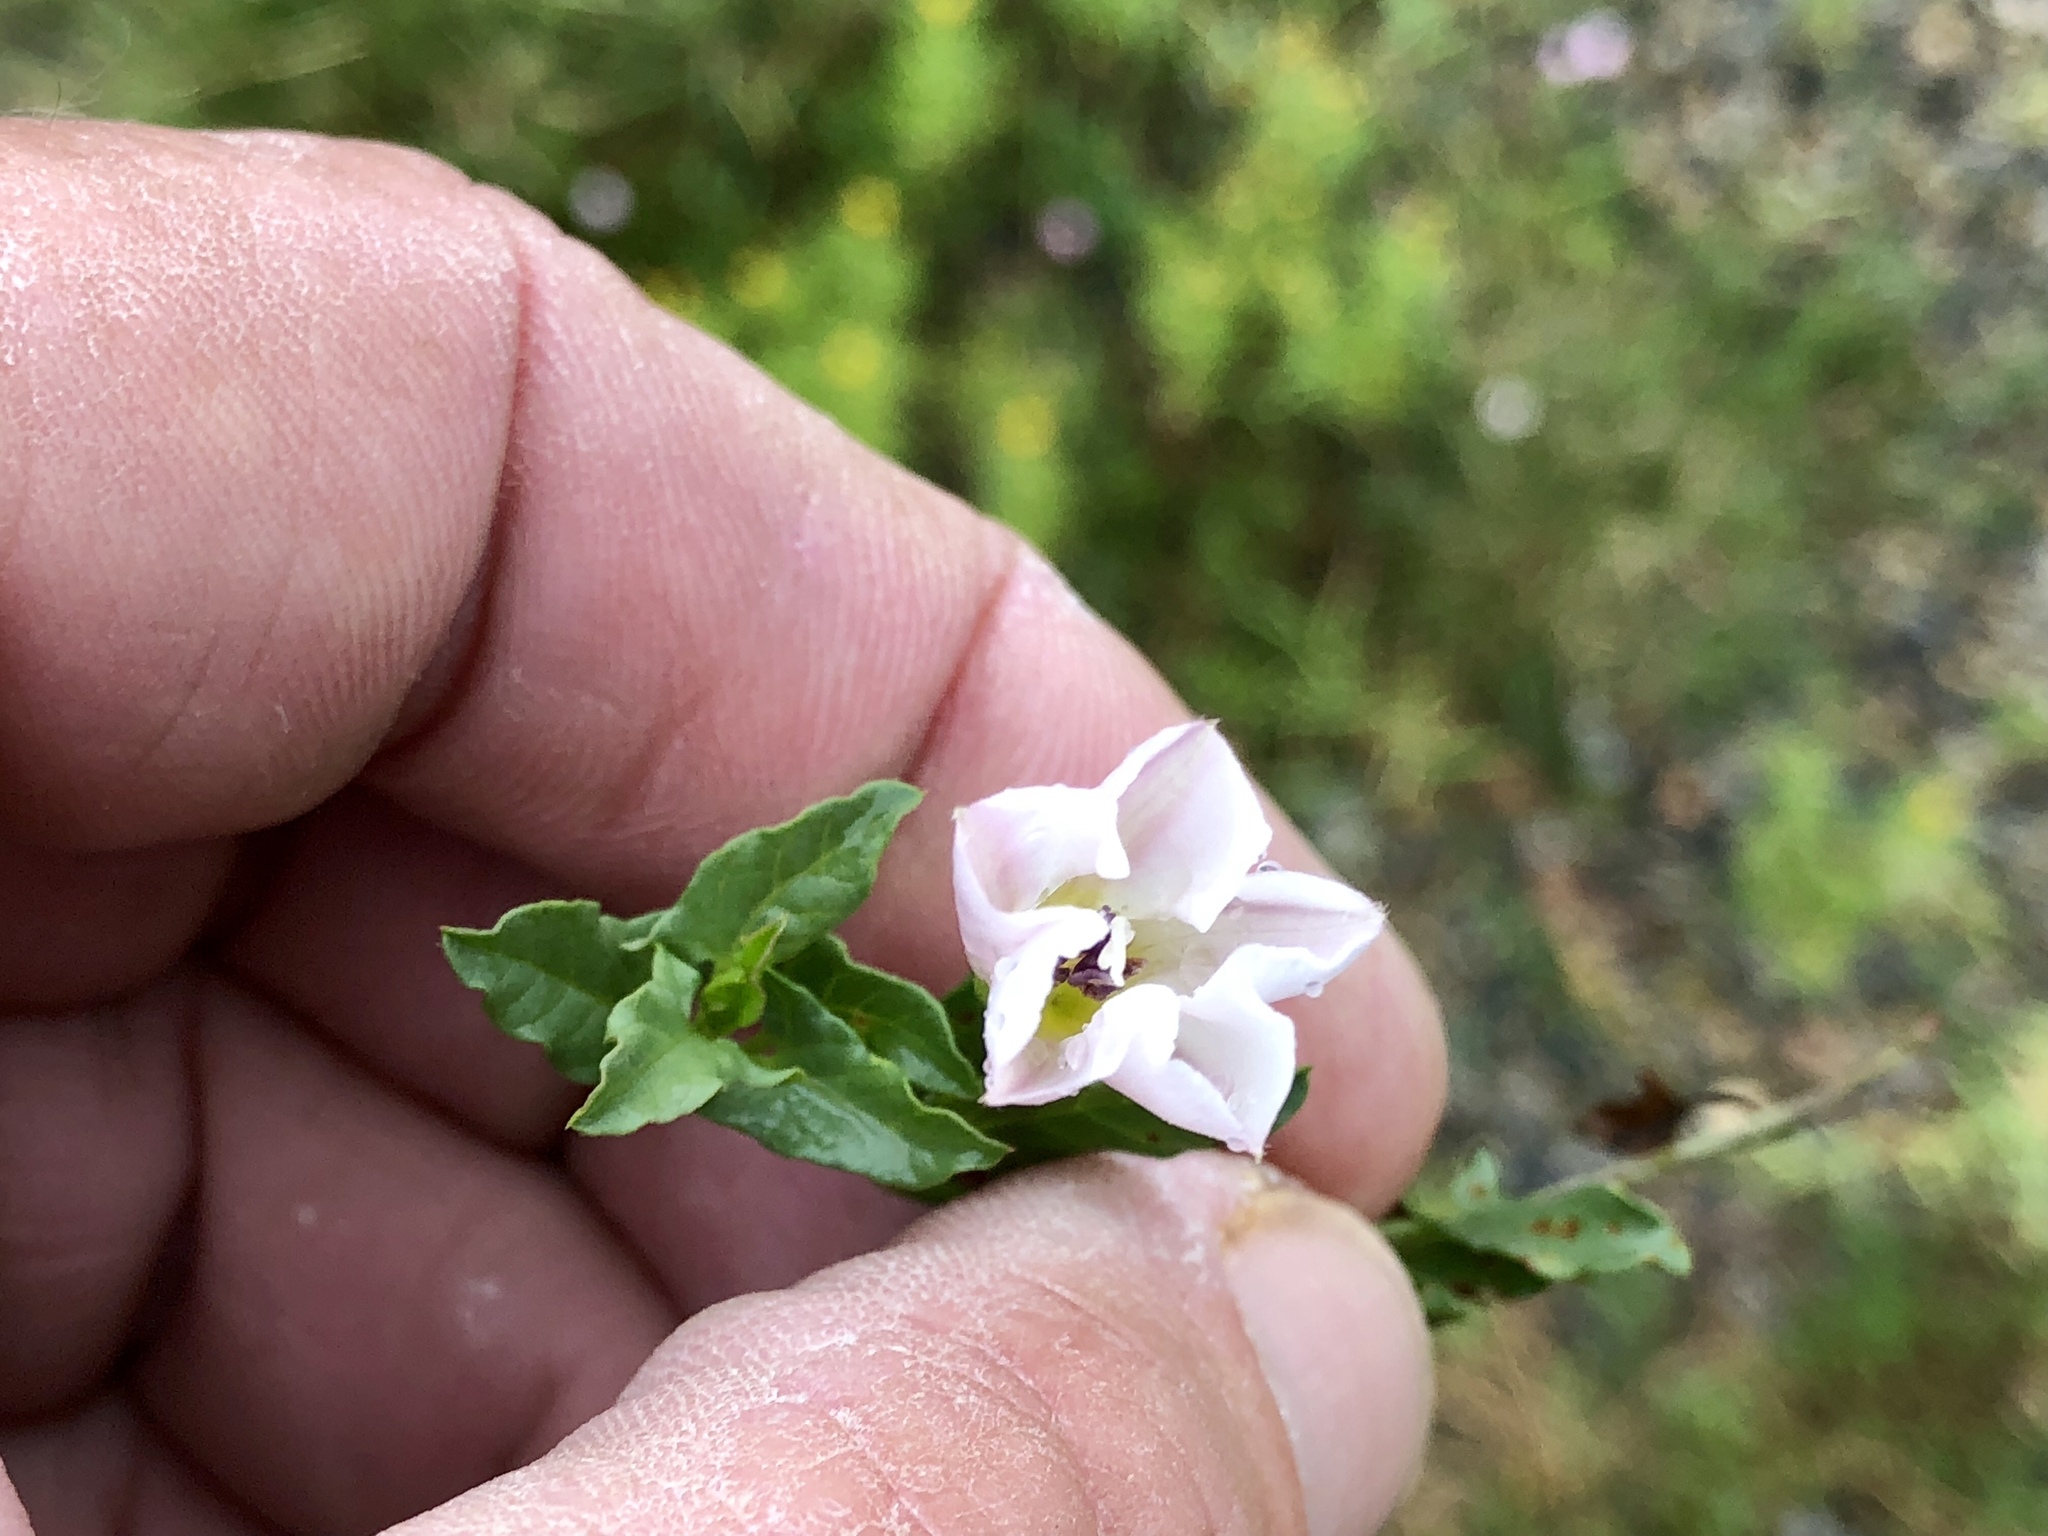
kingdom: Plantae
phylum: Tracheophyta
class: Magnoliopsida
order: Solanales
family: Convolvulaceae
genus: Convolvulus
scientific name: Convolvulus arvensis
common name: Field bindweed
